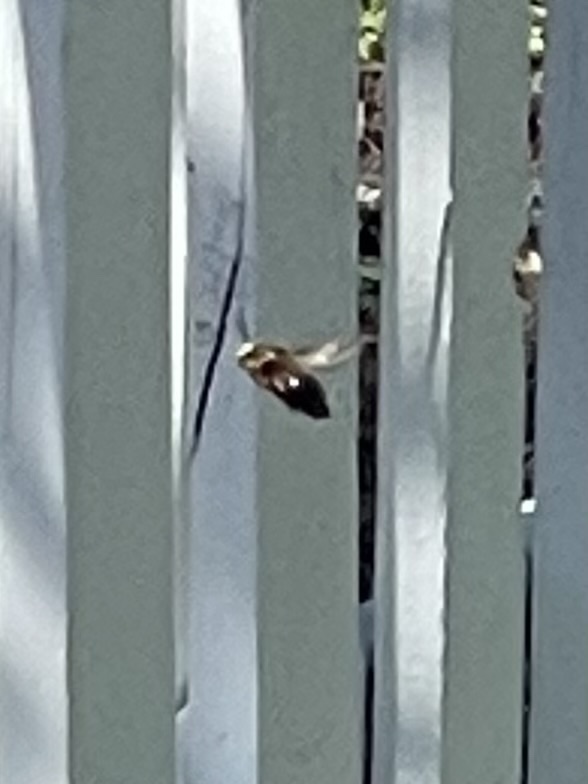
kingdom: Animalia
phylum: Arthropoda
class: Insecta
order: Hymenoptera
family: Apidae
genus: Xylocopa
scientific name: Xylocopa virginica
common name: Carpenter bee
